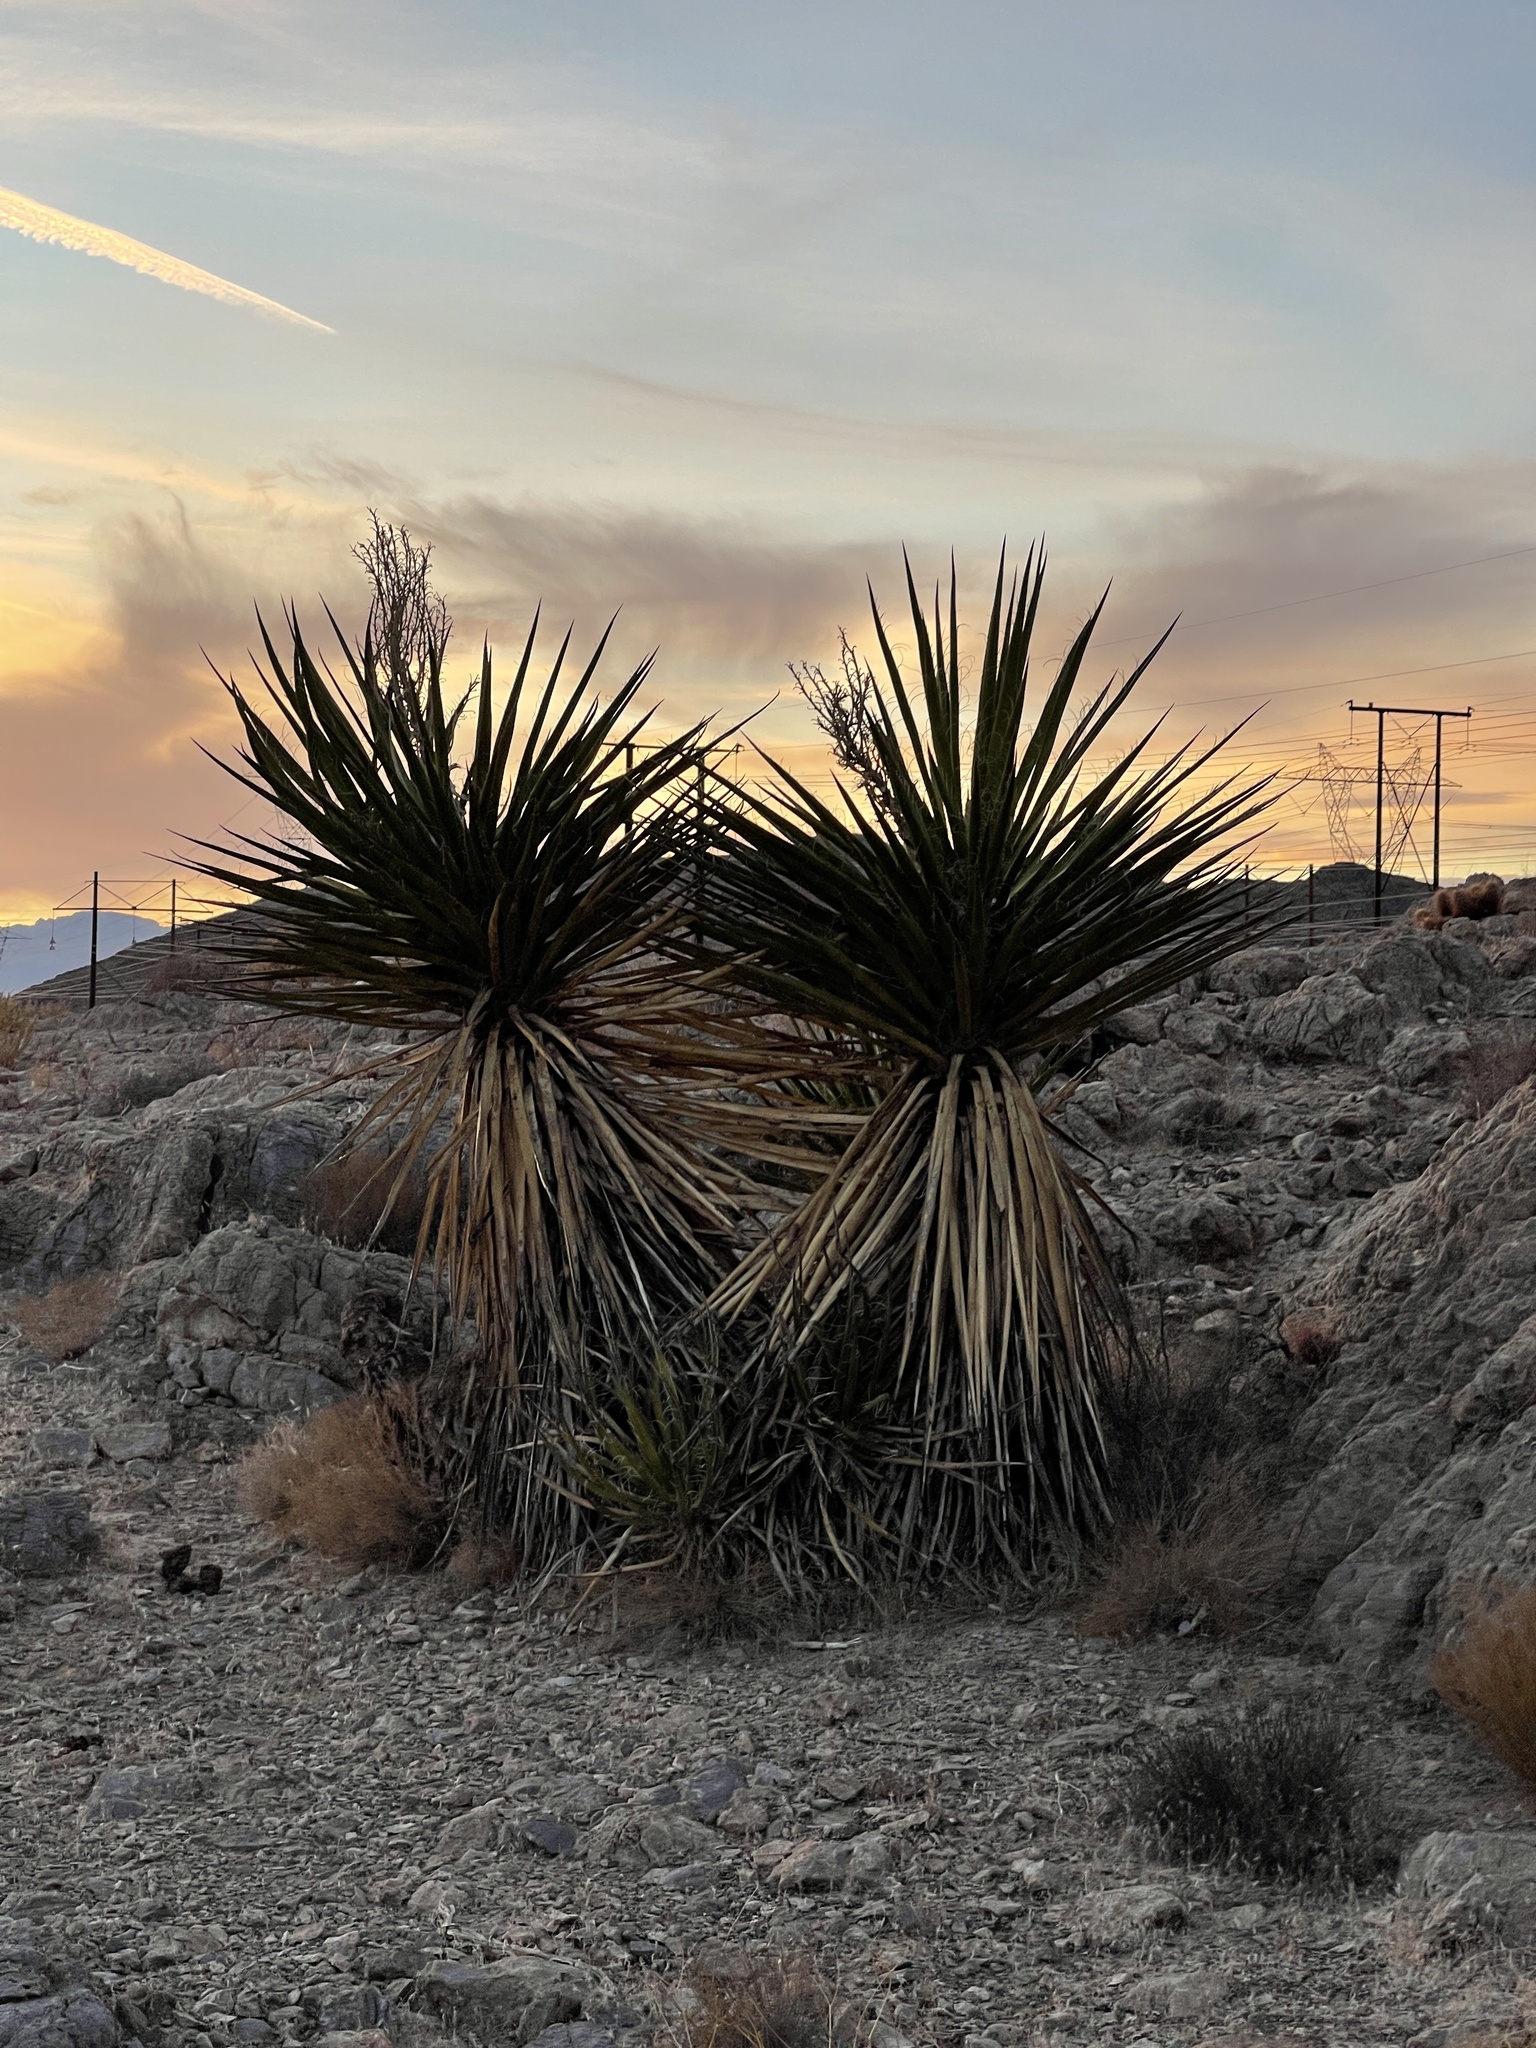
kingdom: Plantae
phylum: Tracheophyta
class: Liliopsida
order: Asparagales
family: Asparagaceae
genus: Yucca
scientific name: Yucca schidigera
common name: Mojave yucca
